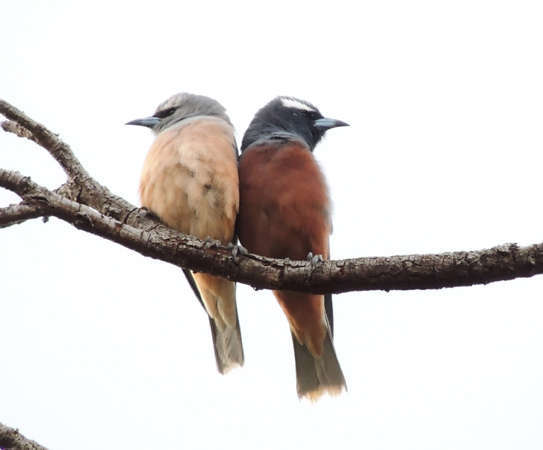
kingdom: Animalia
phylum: Chordata
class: Aves
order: Passeriformes
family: Artamidae
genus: Artamus
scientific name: Artamus superciliosus
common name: White-browed woodswallow
